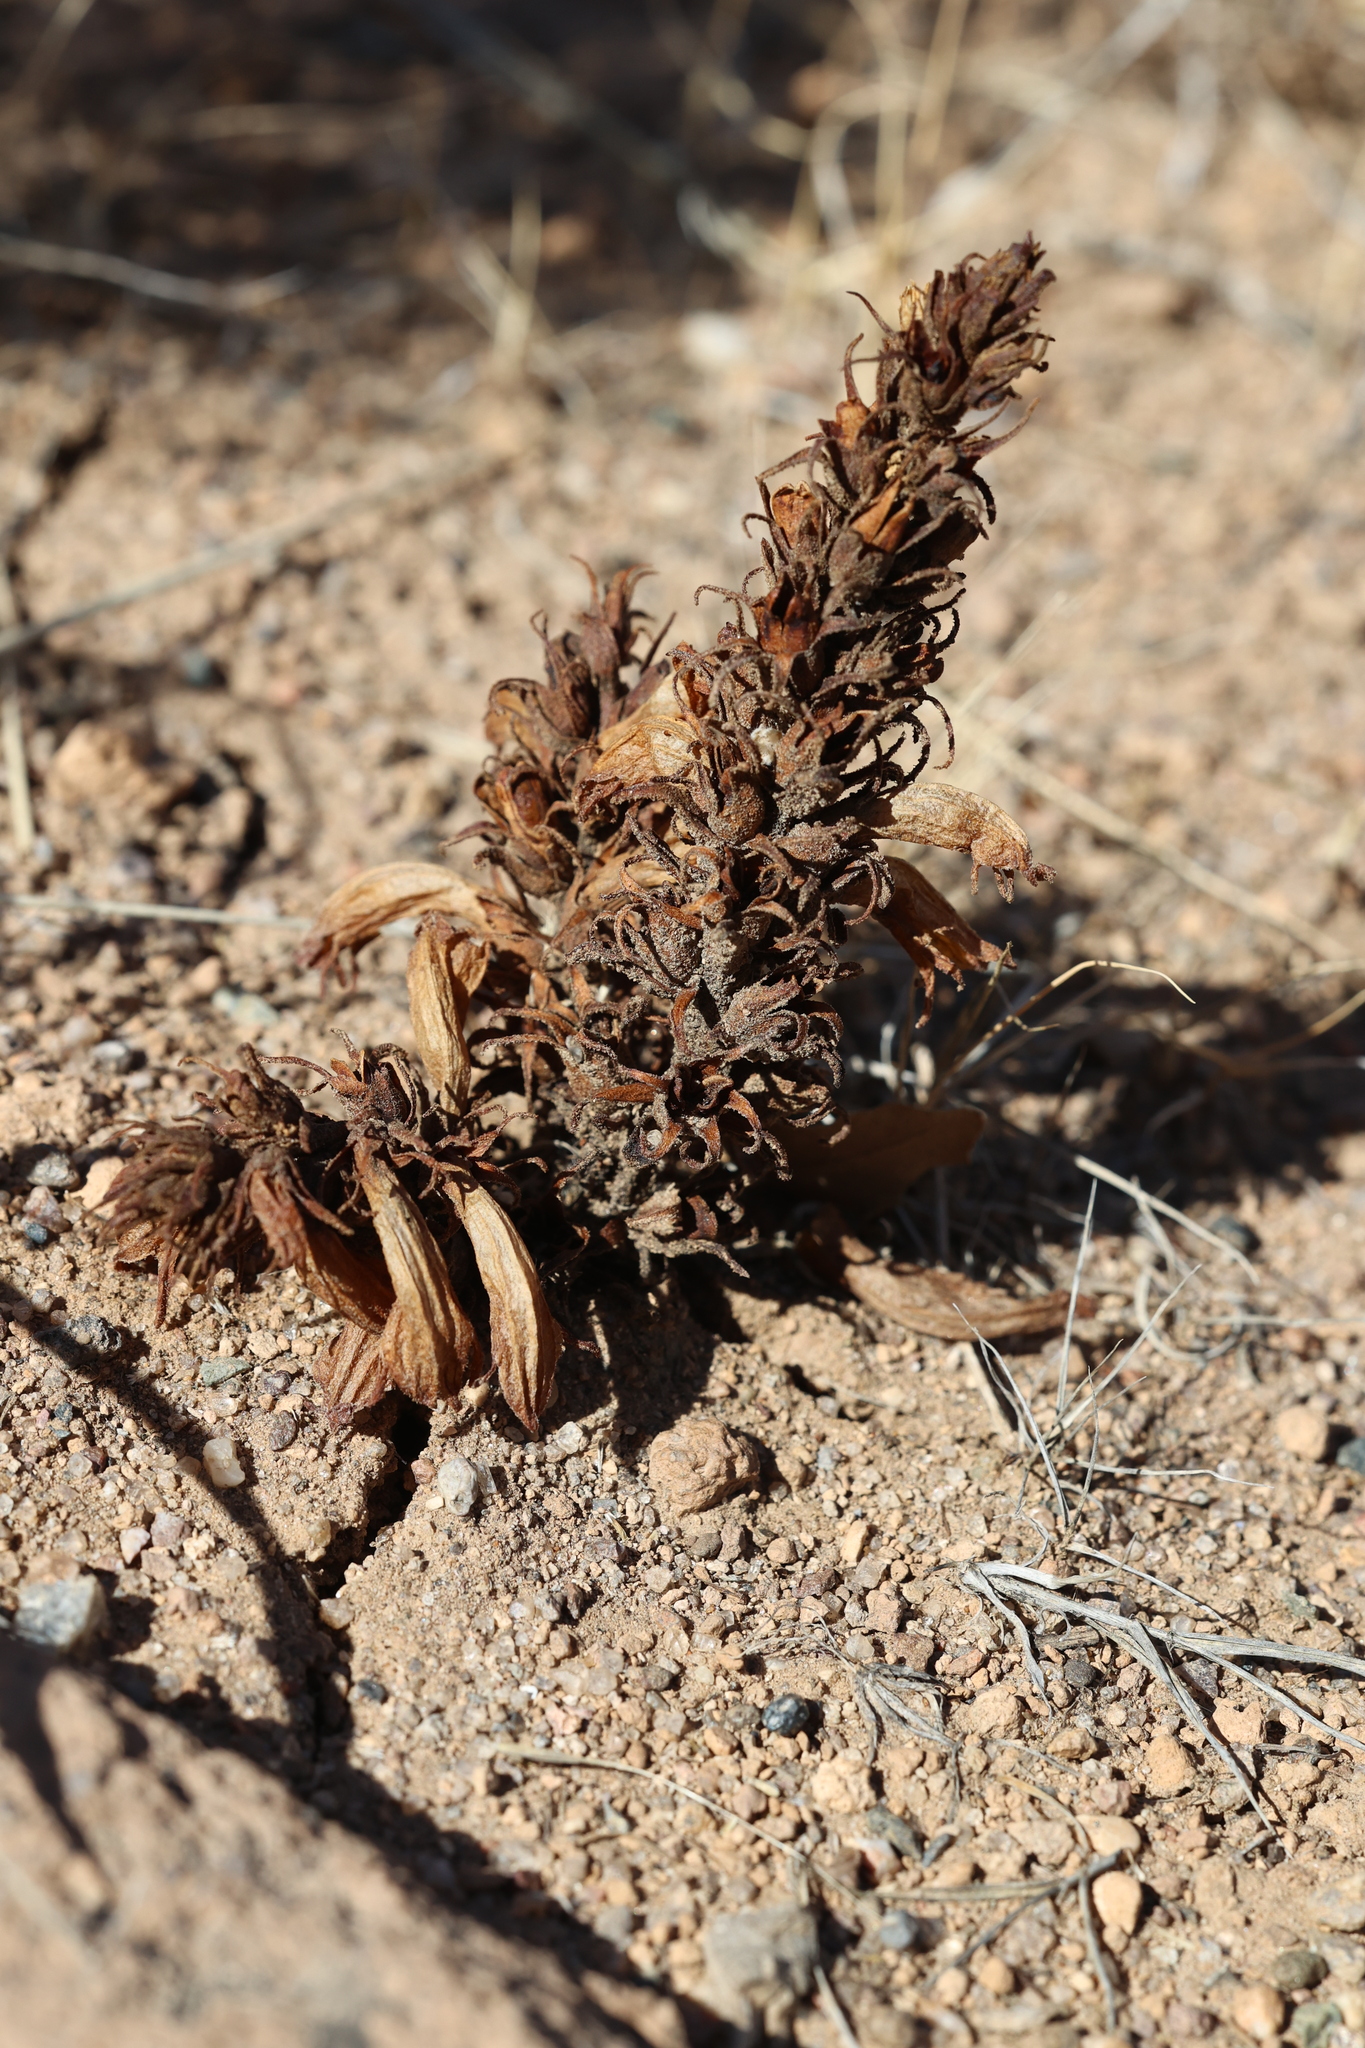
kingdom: Plantae
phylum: Tracheophyta
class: Magnoliopsida
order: Lamiales
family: Orobanchaceae
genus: Aphyllon
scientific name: Aphyllon multiflorum
